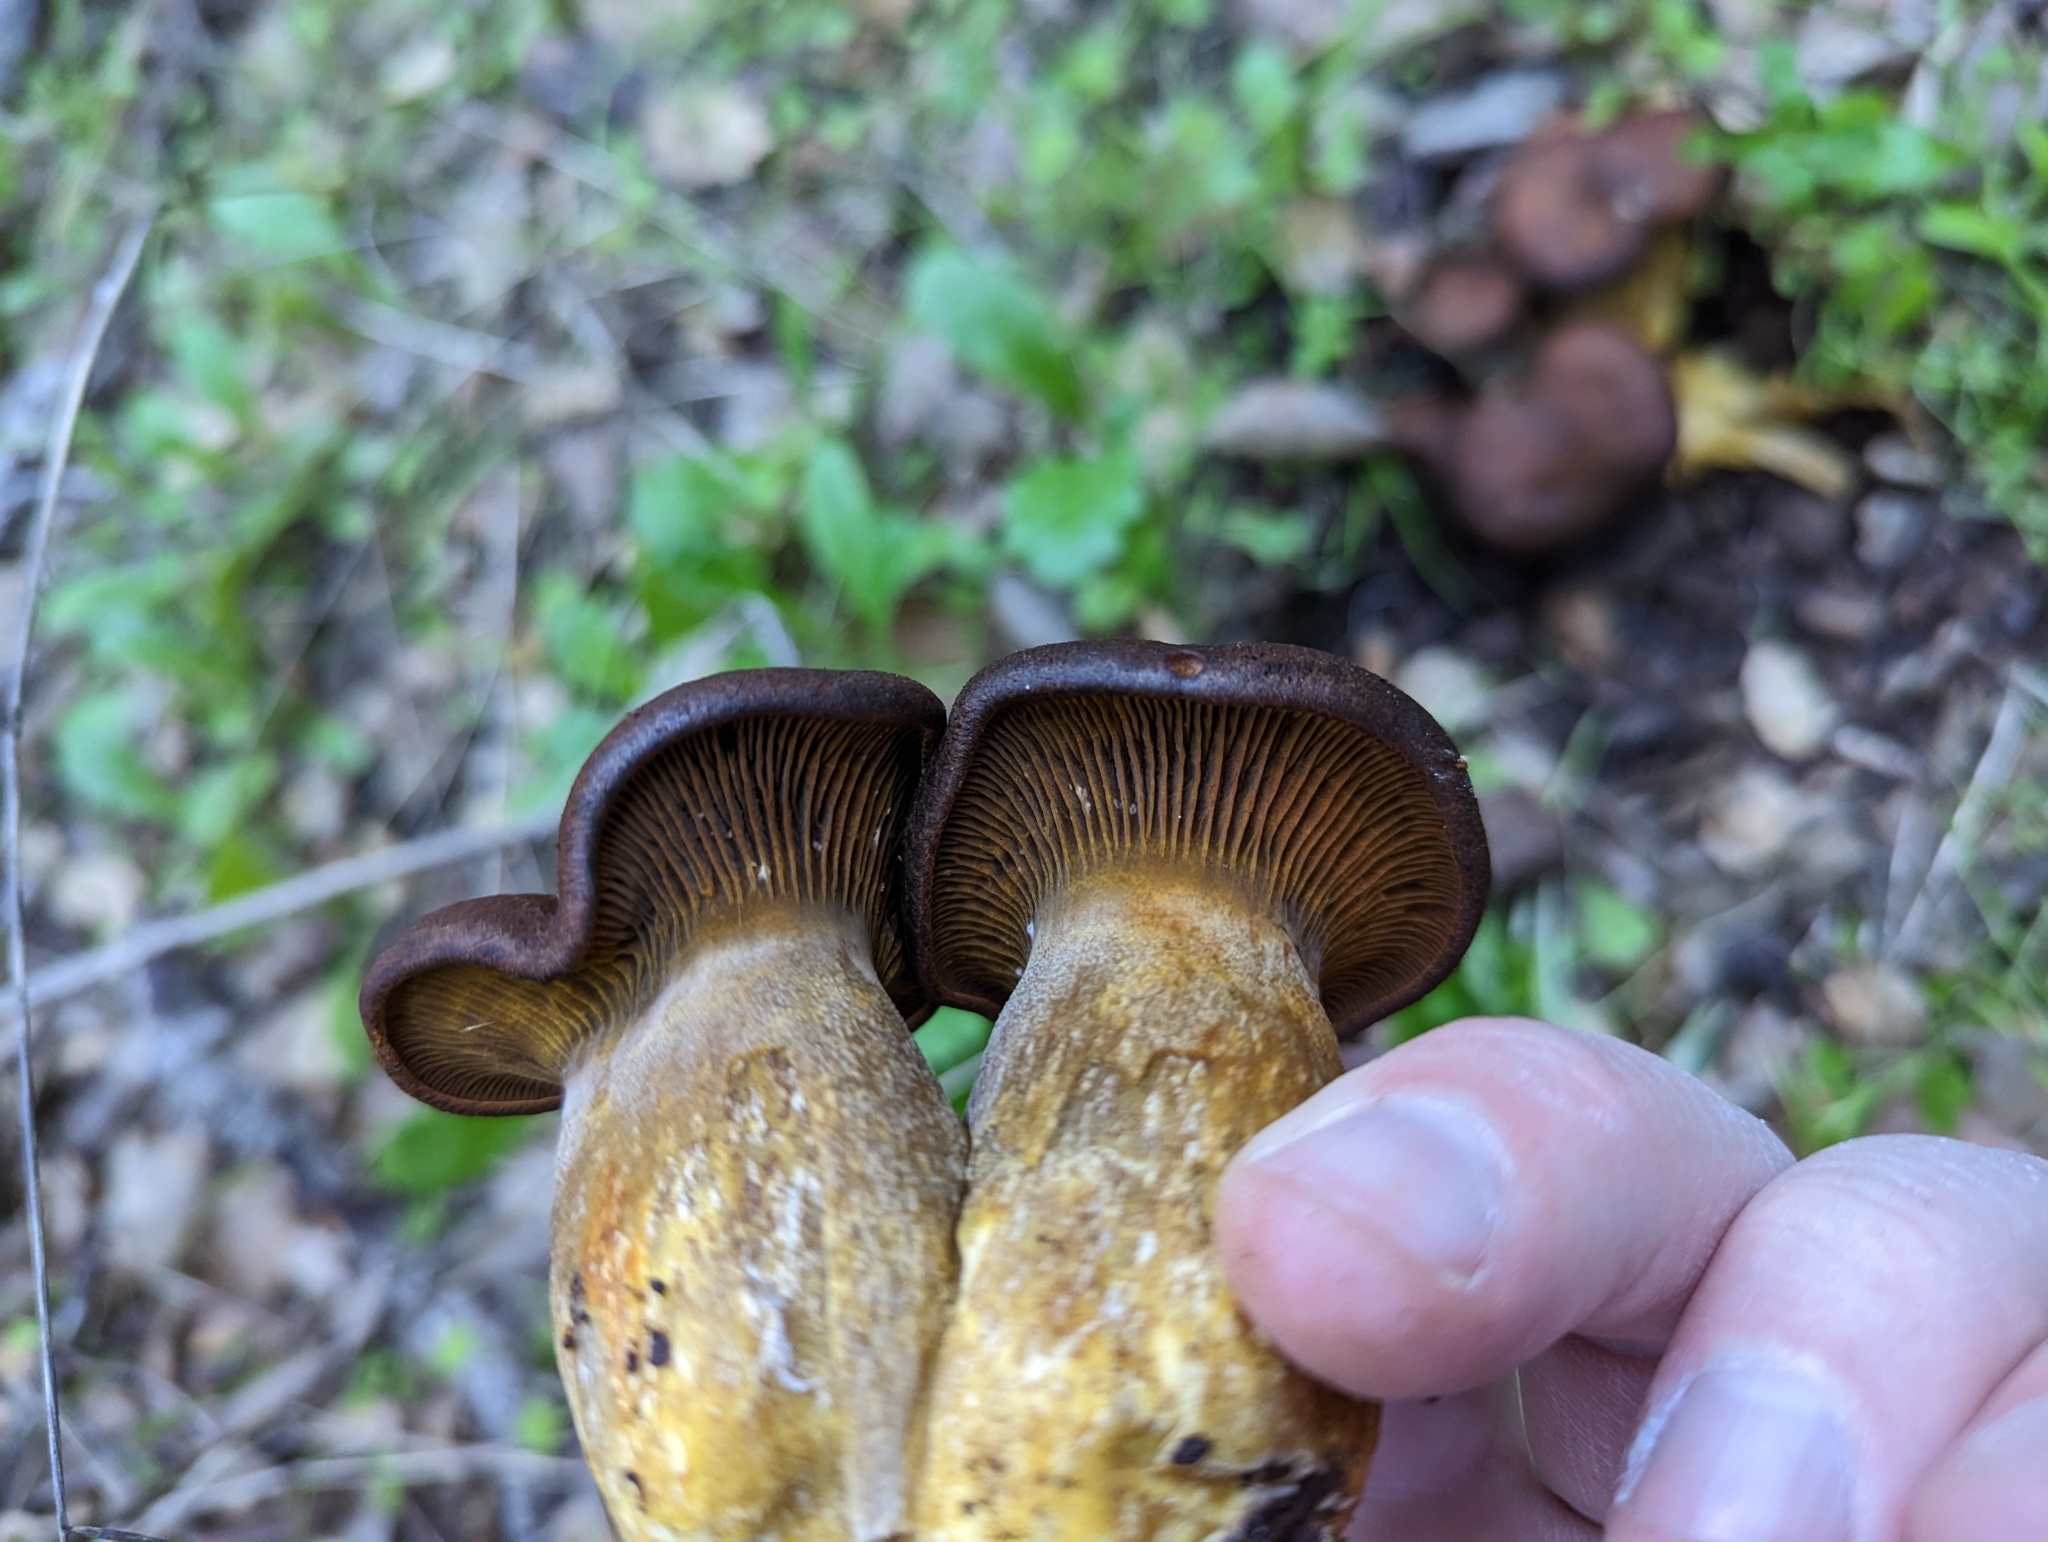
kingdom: Fungi
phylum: Basidiomycota
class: Agaricomycetes
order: Agaricales
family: Omphalotaceae
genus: Omphalotus
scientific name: Omphalotus olivascens
